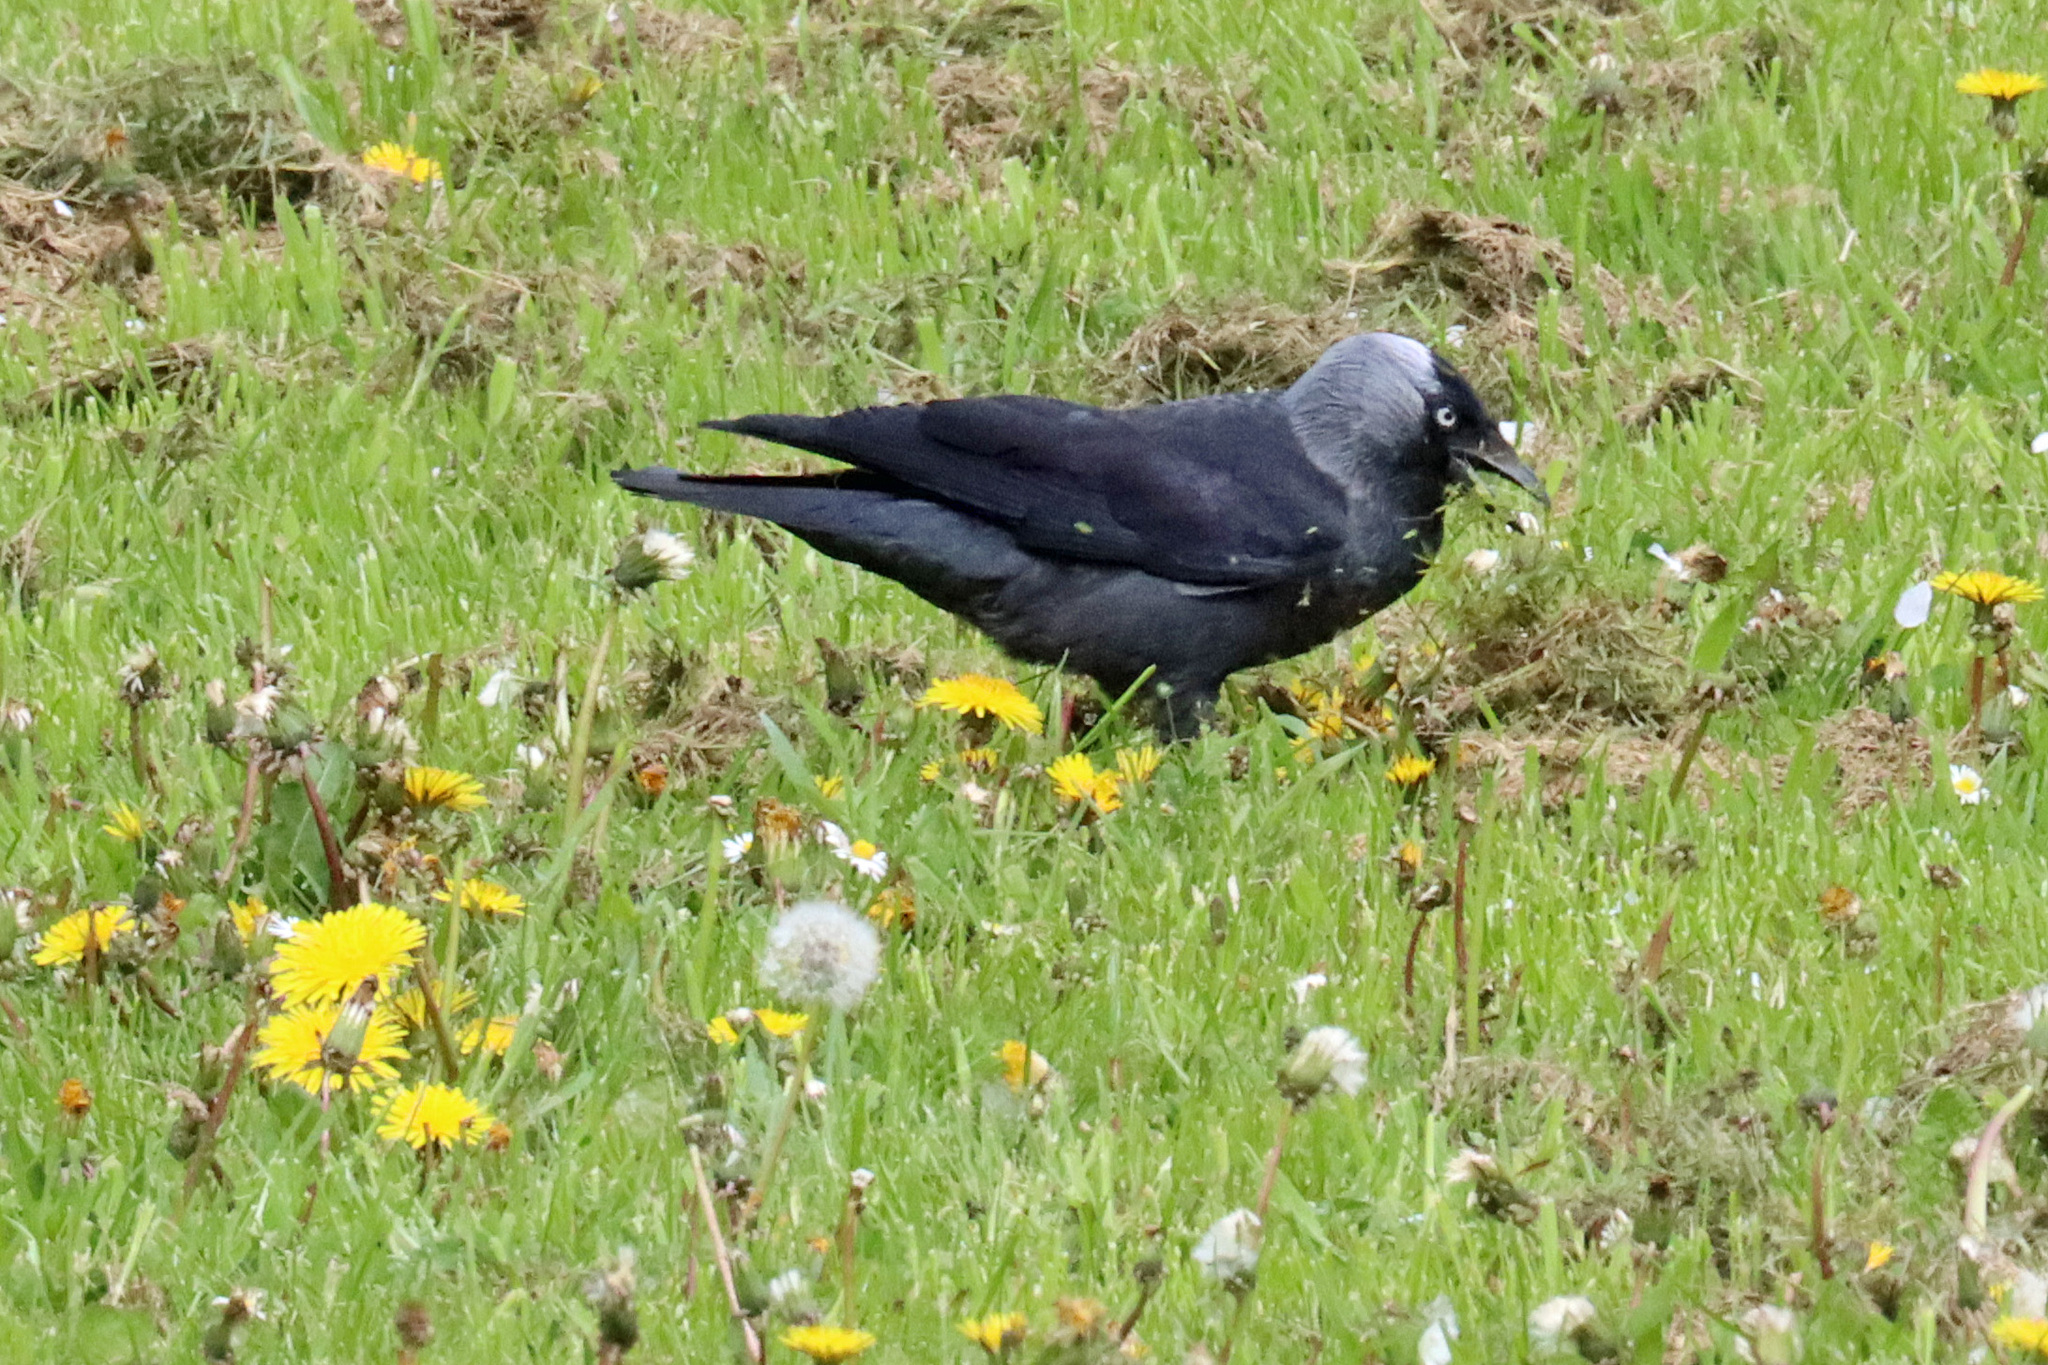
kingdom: Animalia
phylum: Chordata
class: Aves
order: Passeriformes
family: Corvidae
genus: Coloeus
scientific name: Coloeus monedula
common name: Western jackdaw
